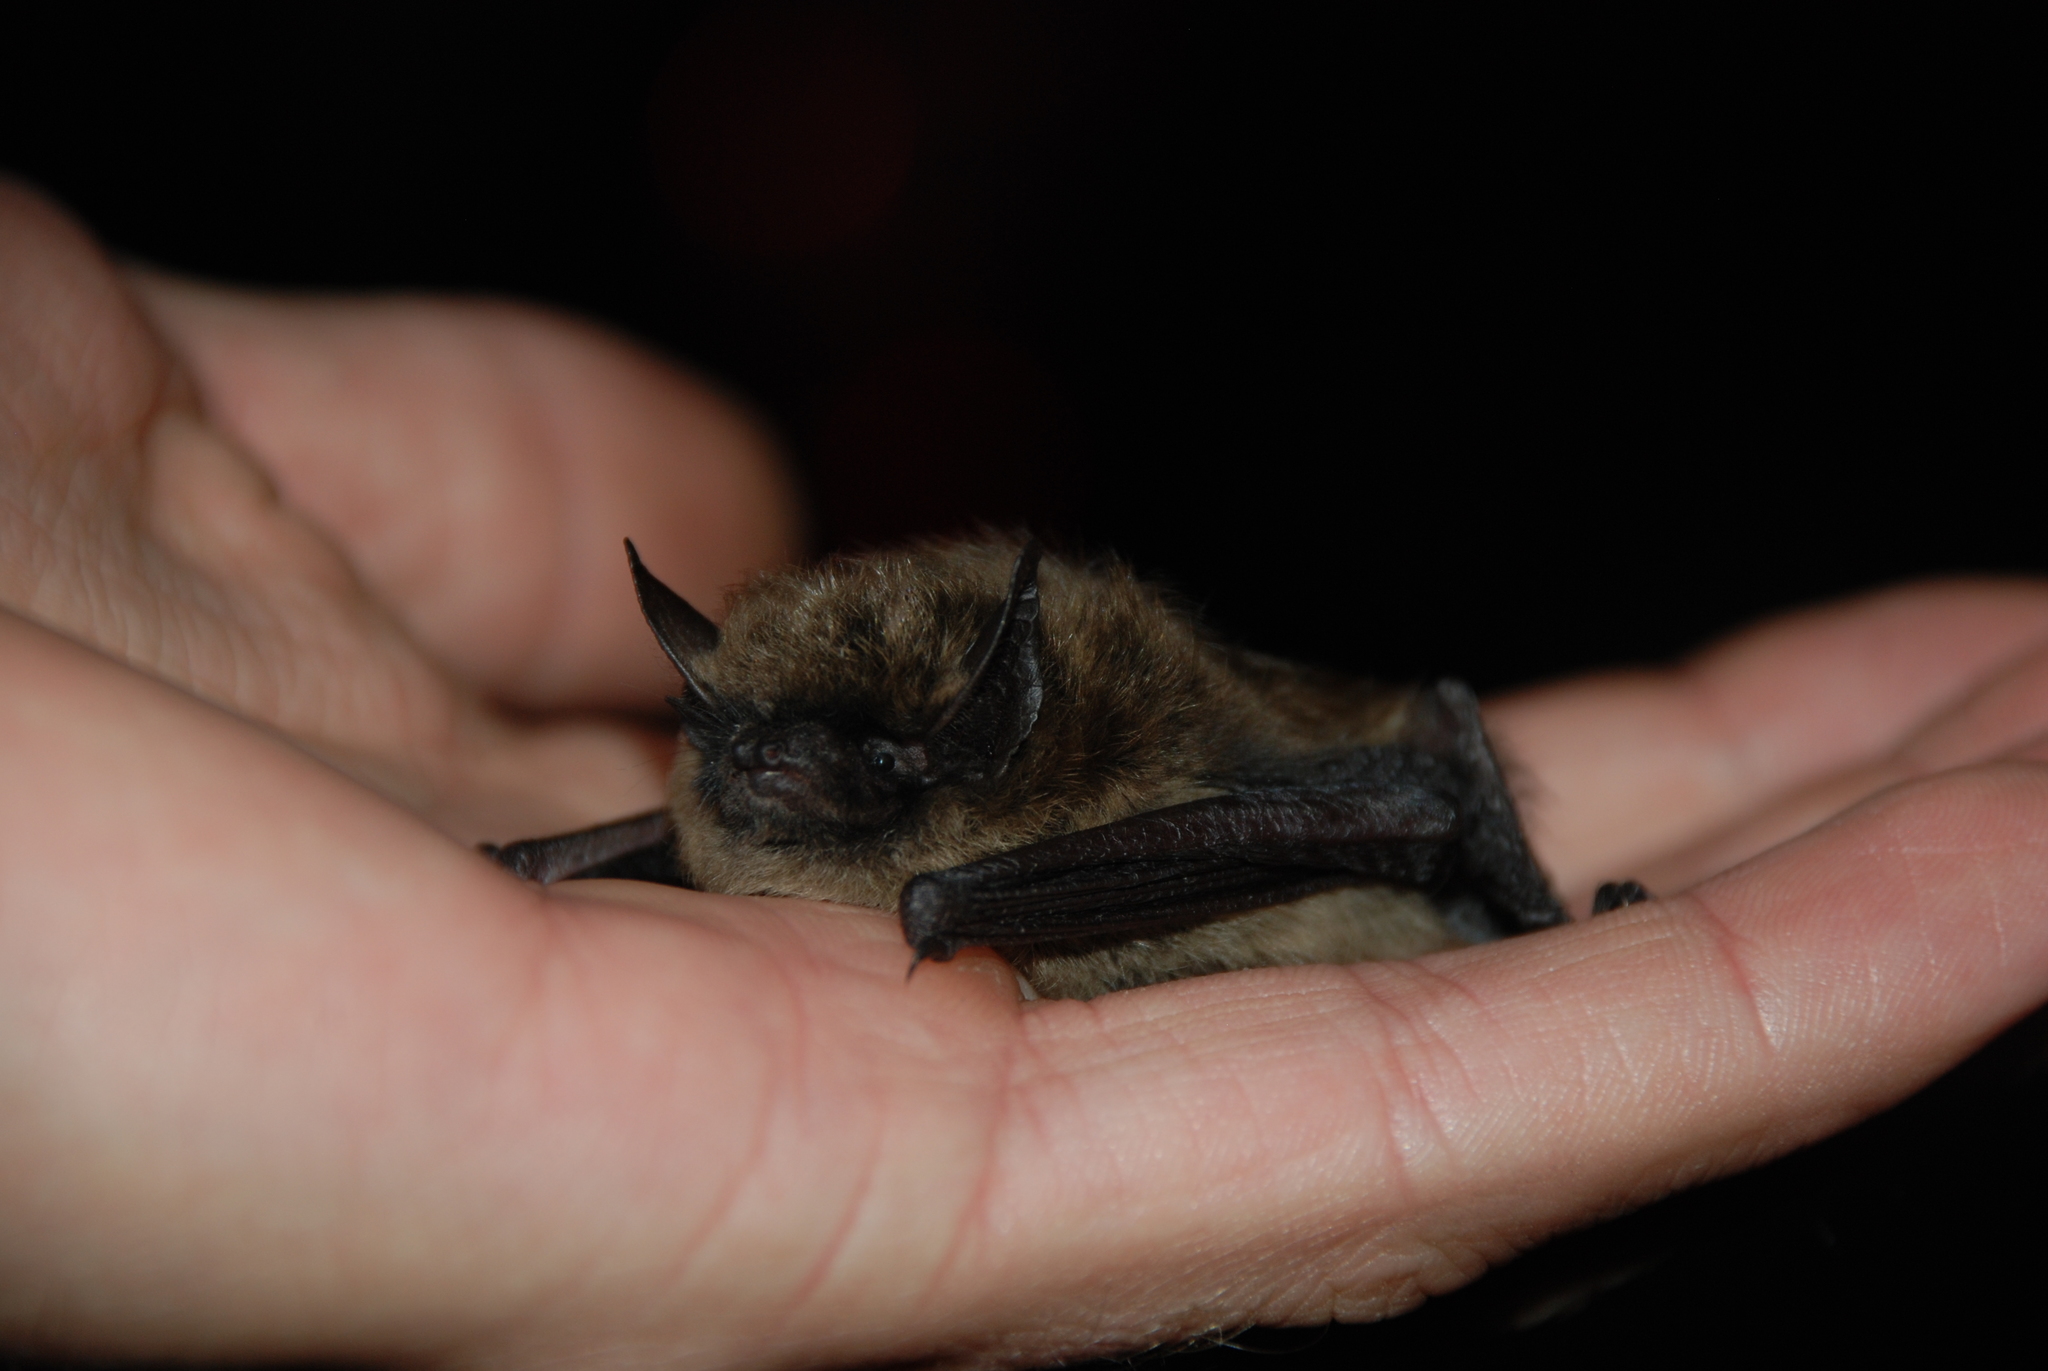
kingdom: Animalia
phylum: Chordata
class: Mammalia
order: Chiroptera
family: Vespertilionidae
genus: Myotis
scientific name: Myotis leibii
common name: Eastern small-footed myotis
